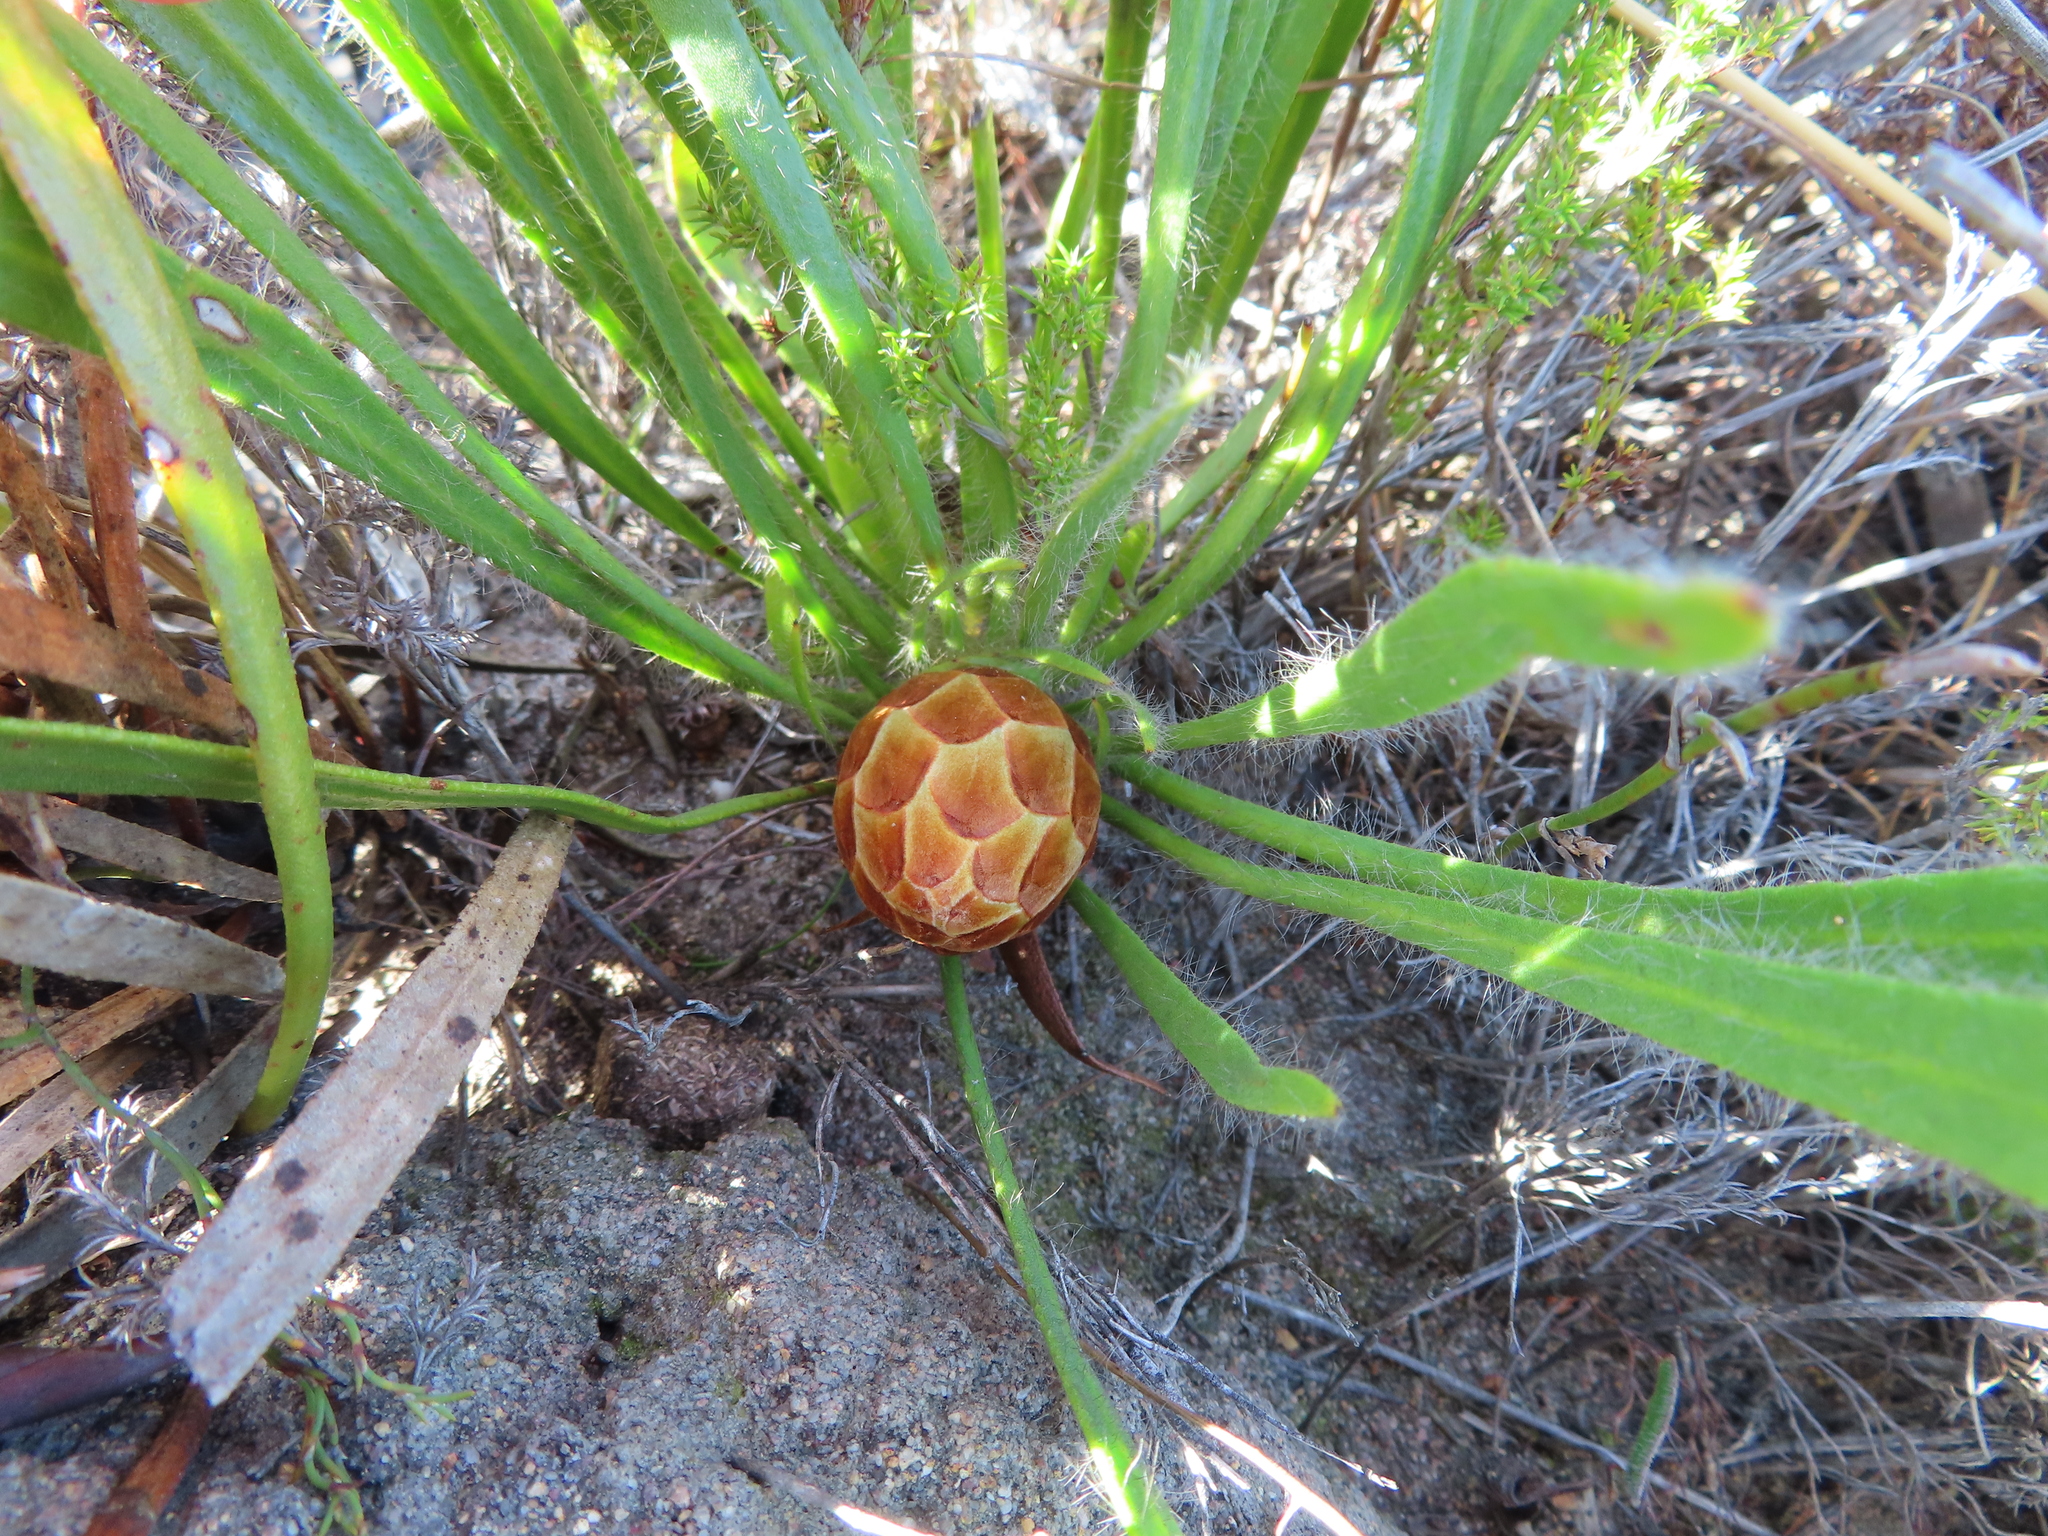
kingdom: Plantae
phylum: Tracheophyta
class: Magnoliopsida
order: Proteales
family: Proteaceae
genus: Protea
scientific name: Protea aspera
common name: Rough-leaf sugarbush
